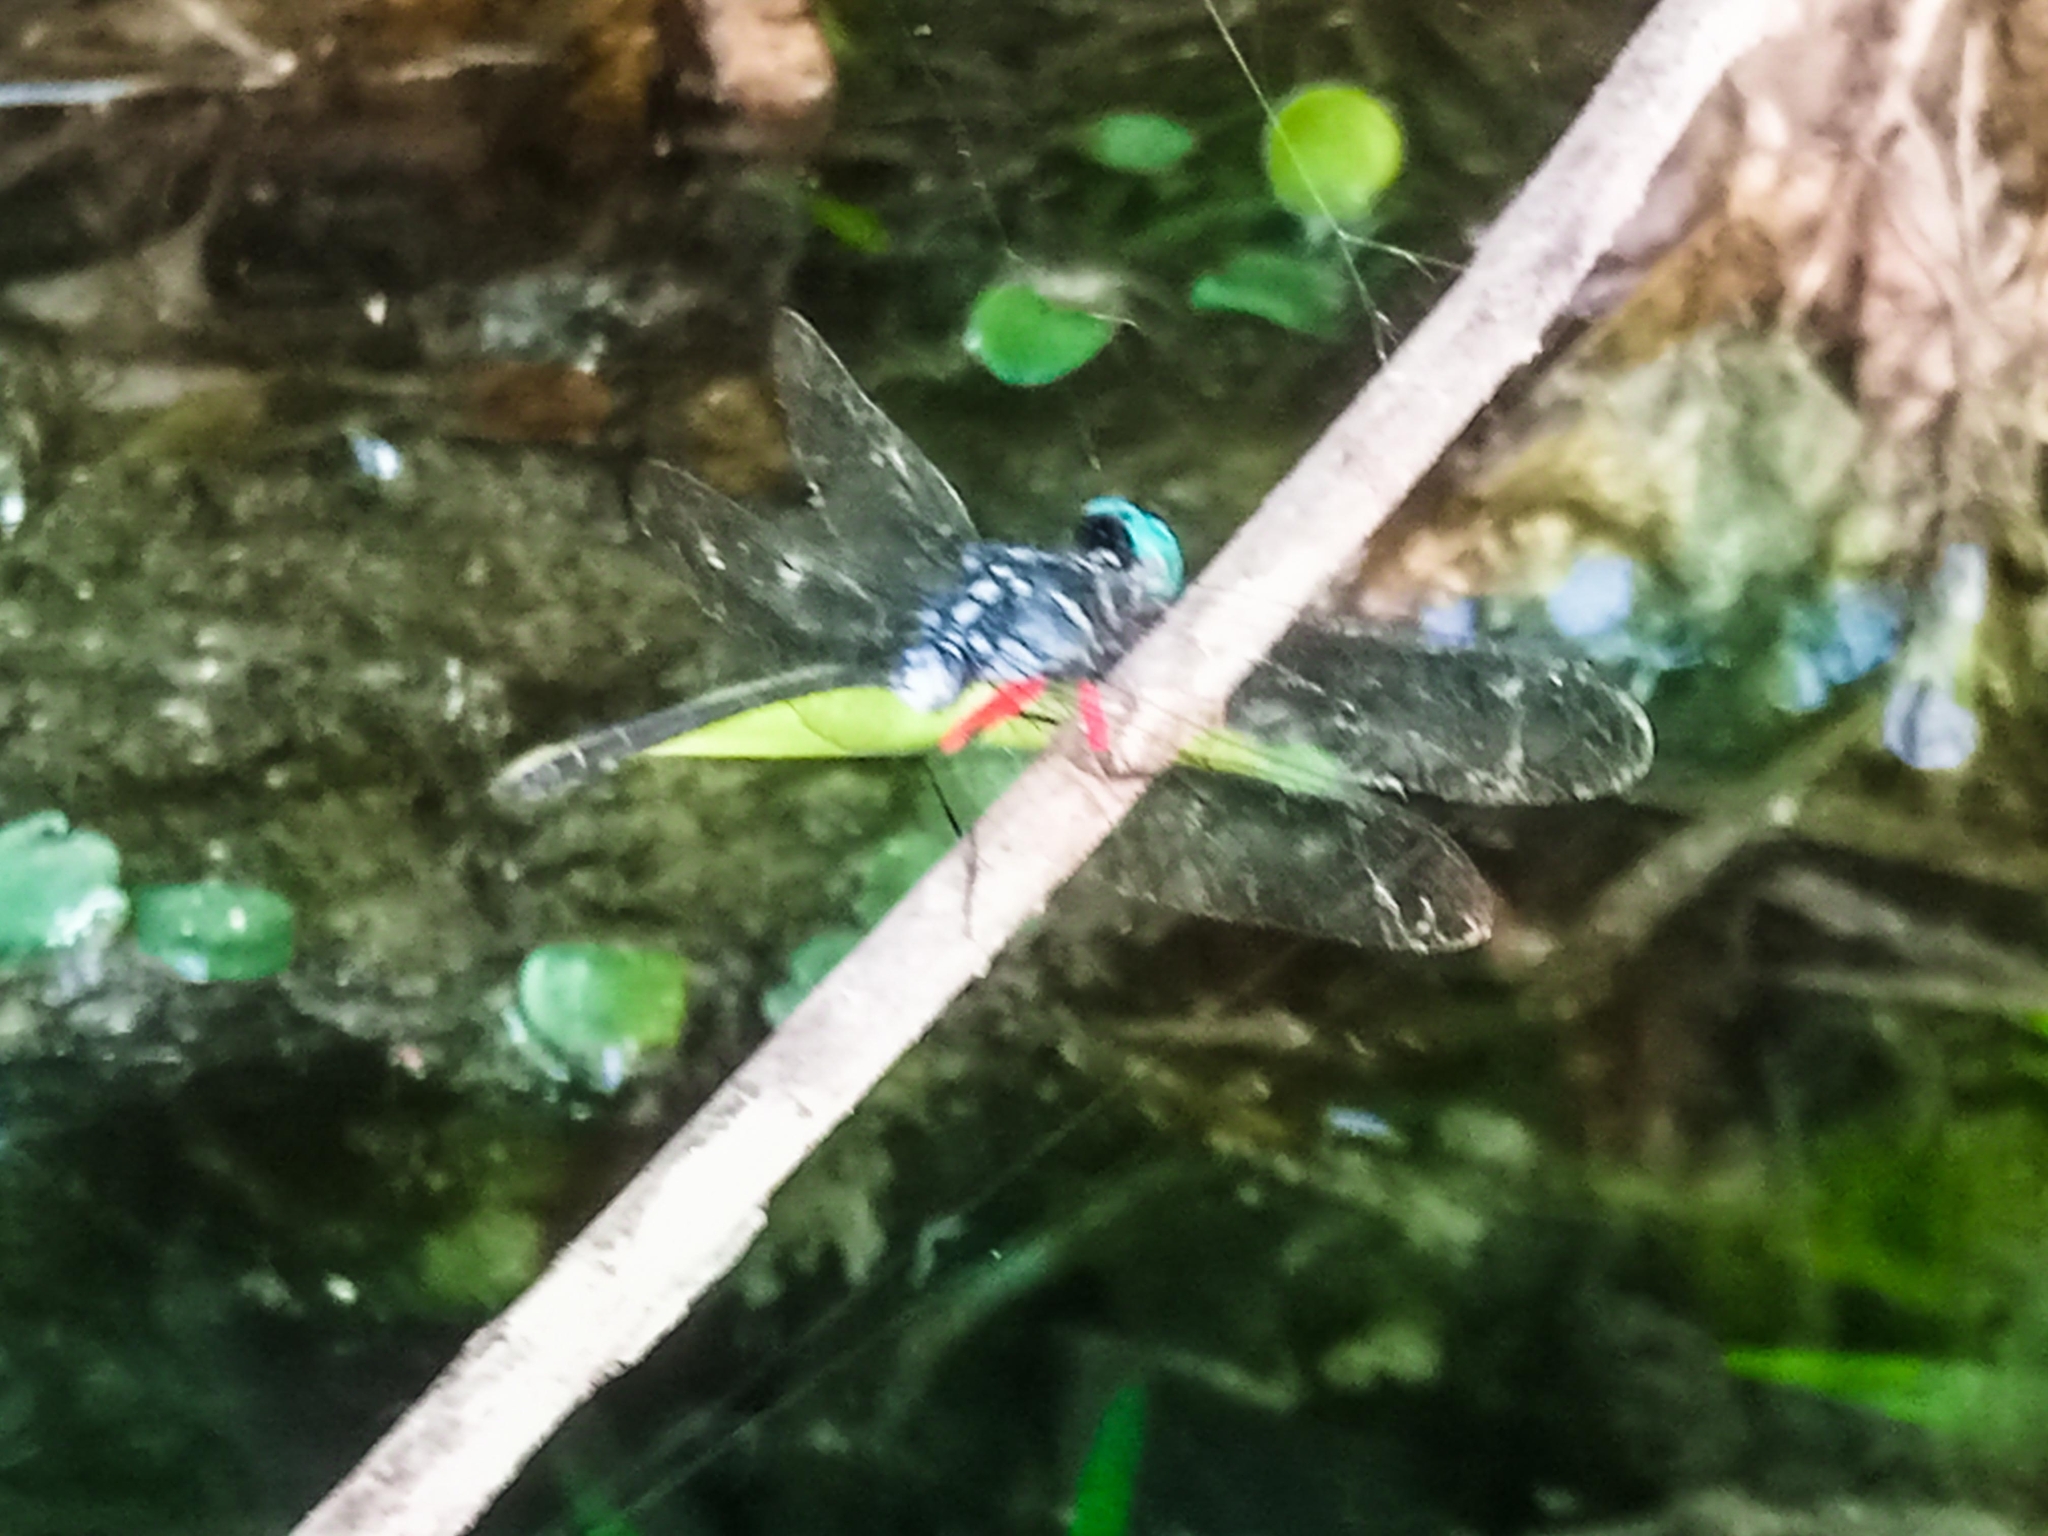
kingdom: Animalia
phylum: Arthropoda
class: Insecta
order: Odonata
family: Libellulidae
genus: Oxythemis
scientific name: Oxythemis phoenicosceles
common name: Pepperpants
